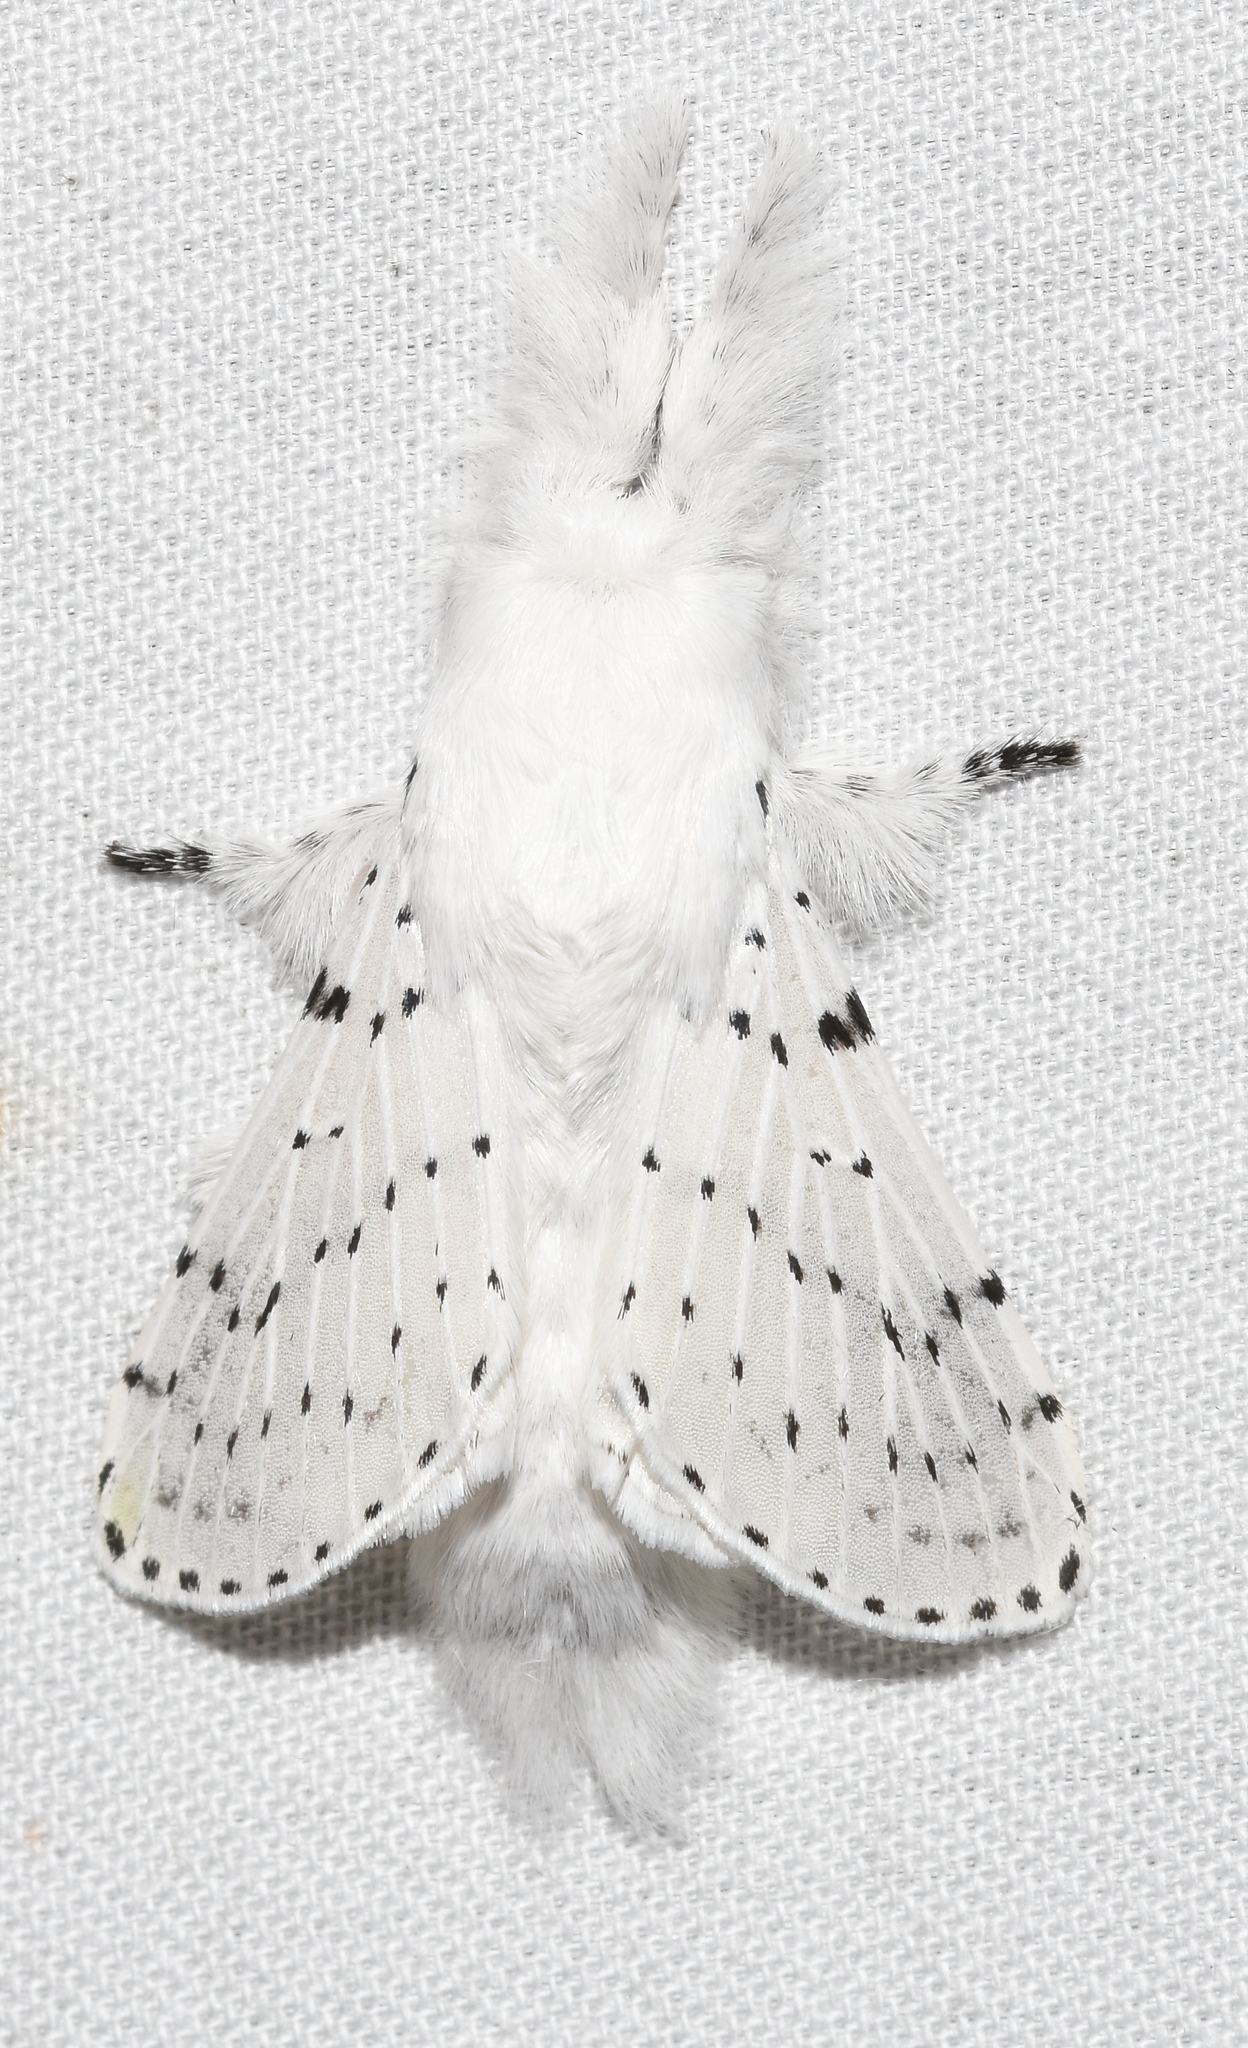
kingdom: Animalia
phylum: Arthropoda
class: Insecta
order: Lepidoptera
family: Lasiocampidae
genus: Artace
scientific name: Artace cribrarius
